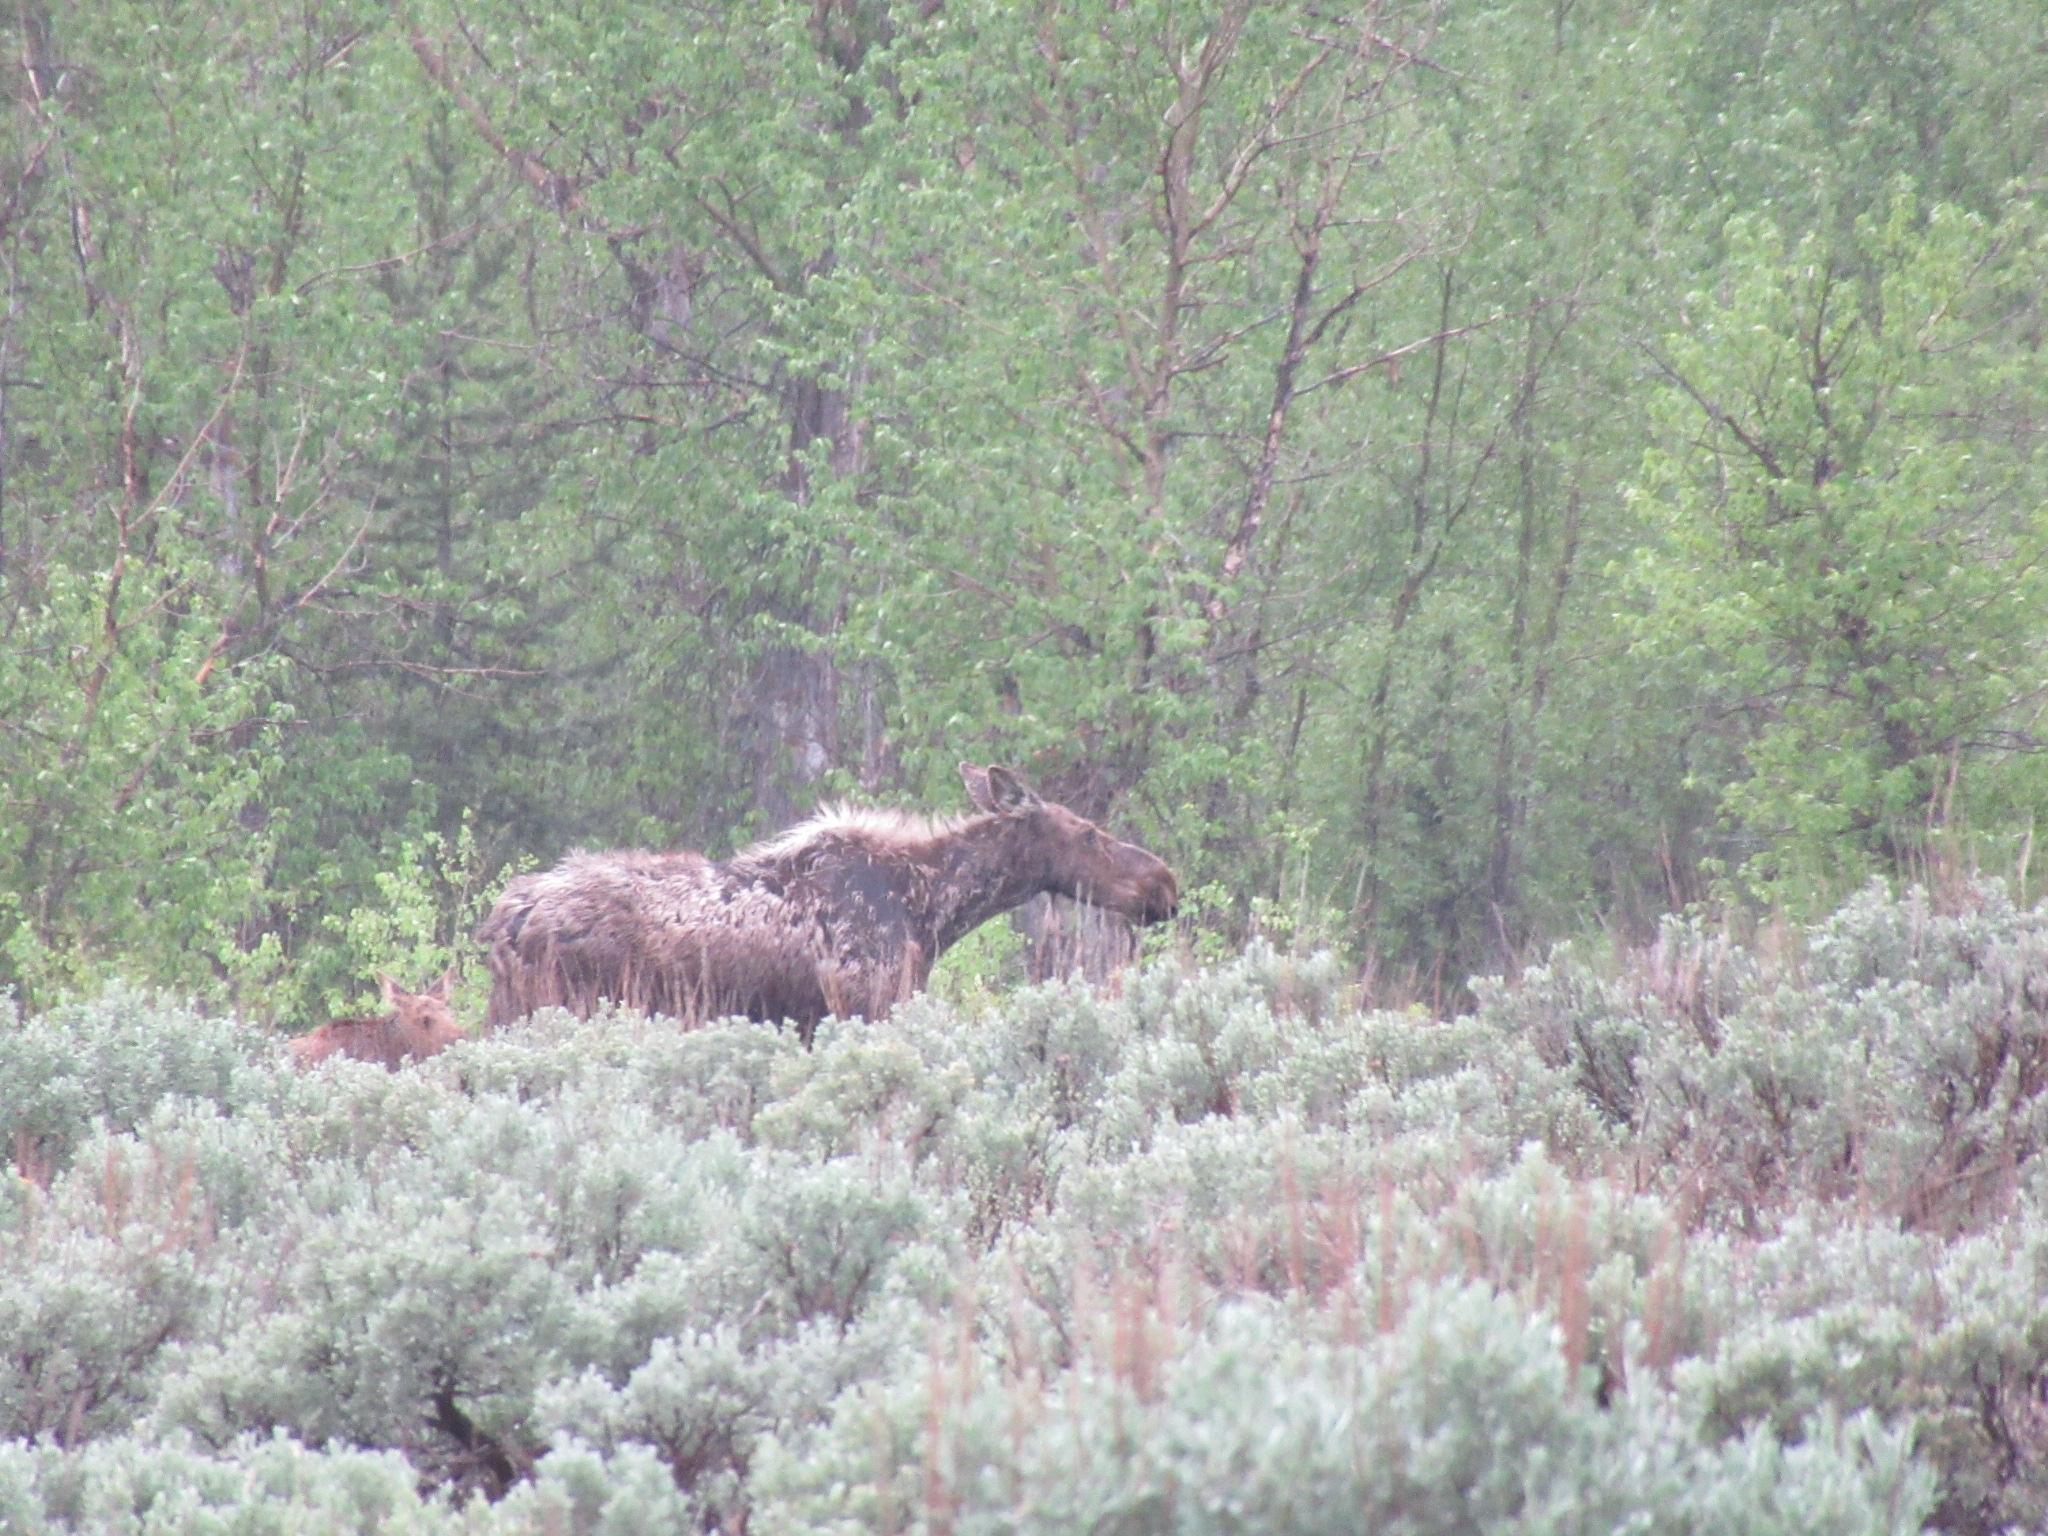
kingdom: Animalia
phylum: Chordata
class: Mammalia
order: Artiodactyla
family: Cervidae
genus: Alces
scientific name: Alces alces
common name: Moose
